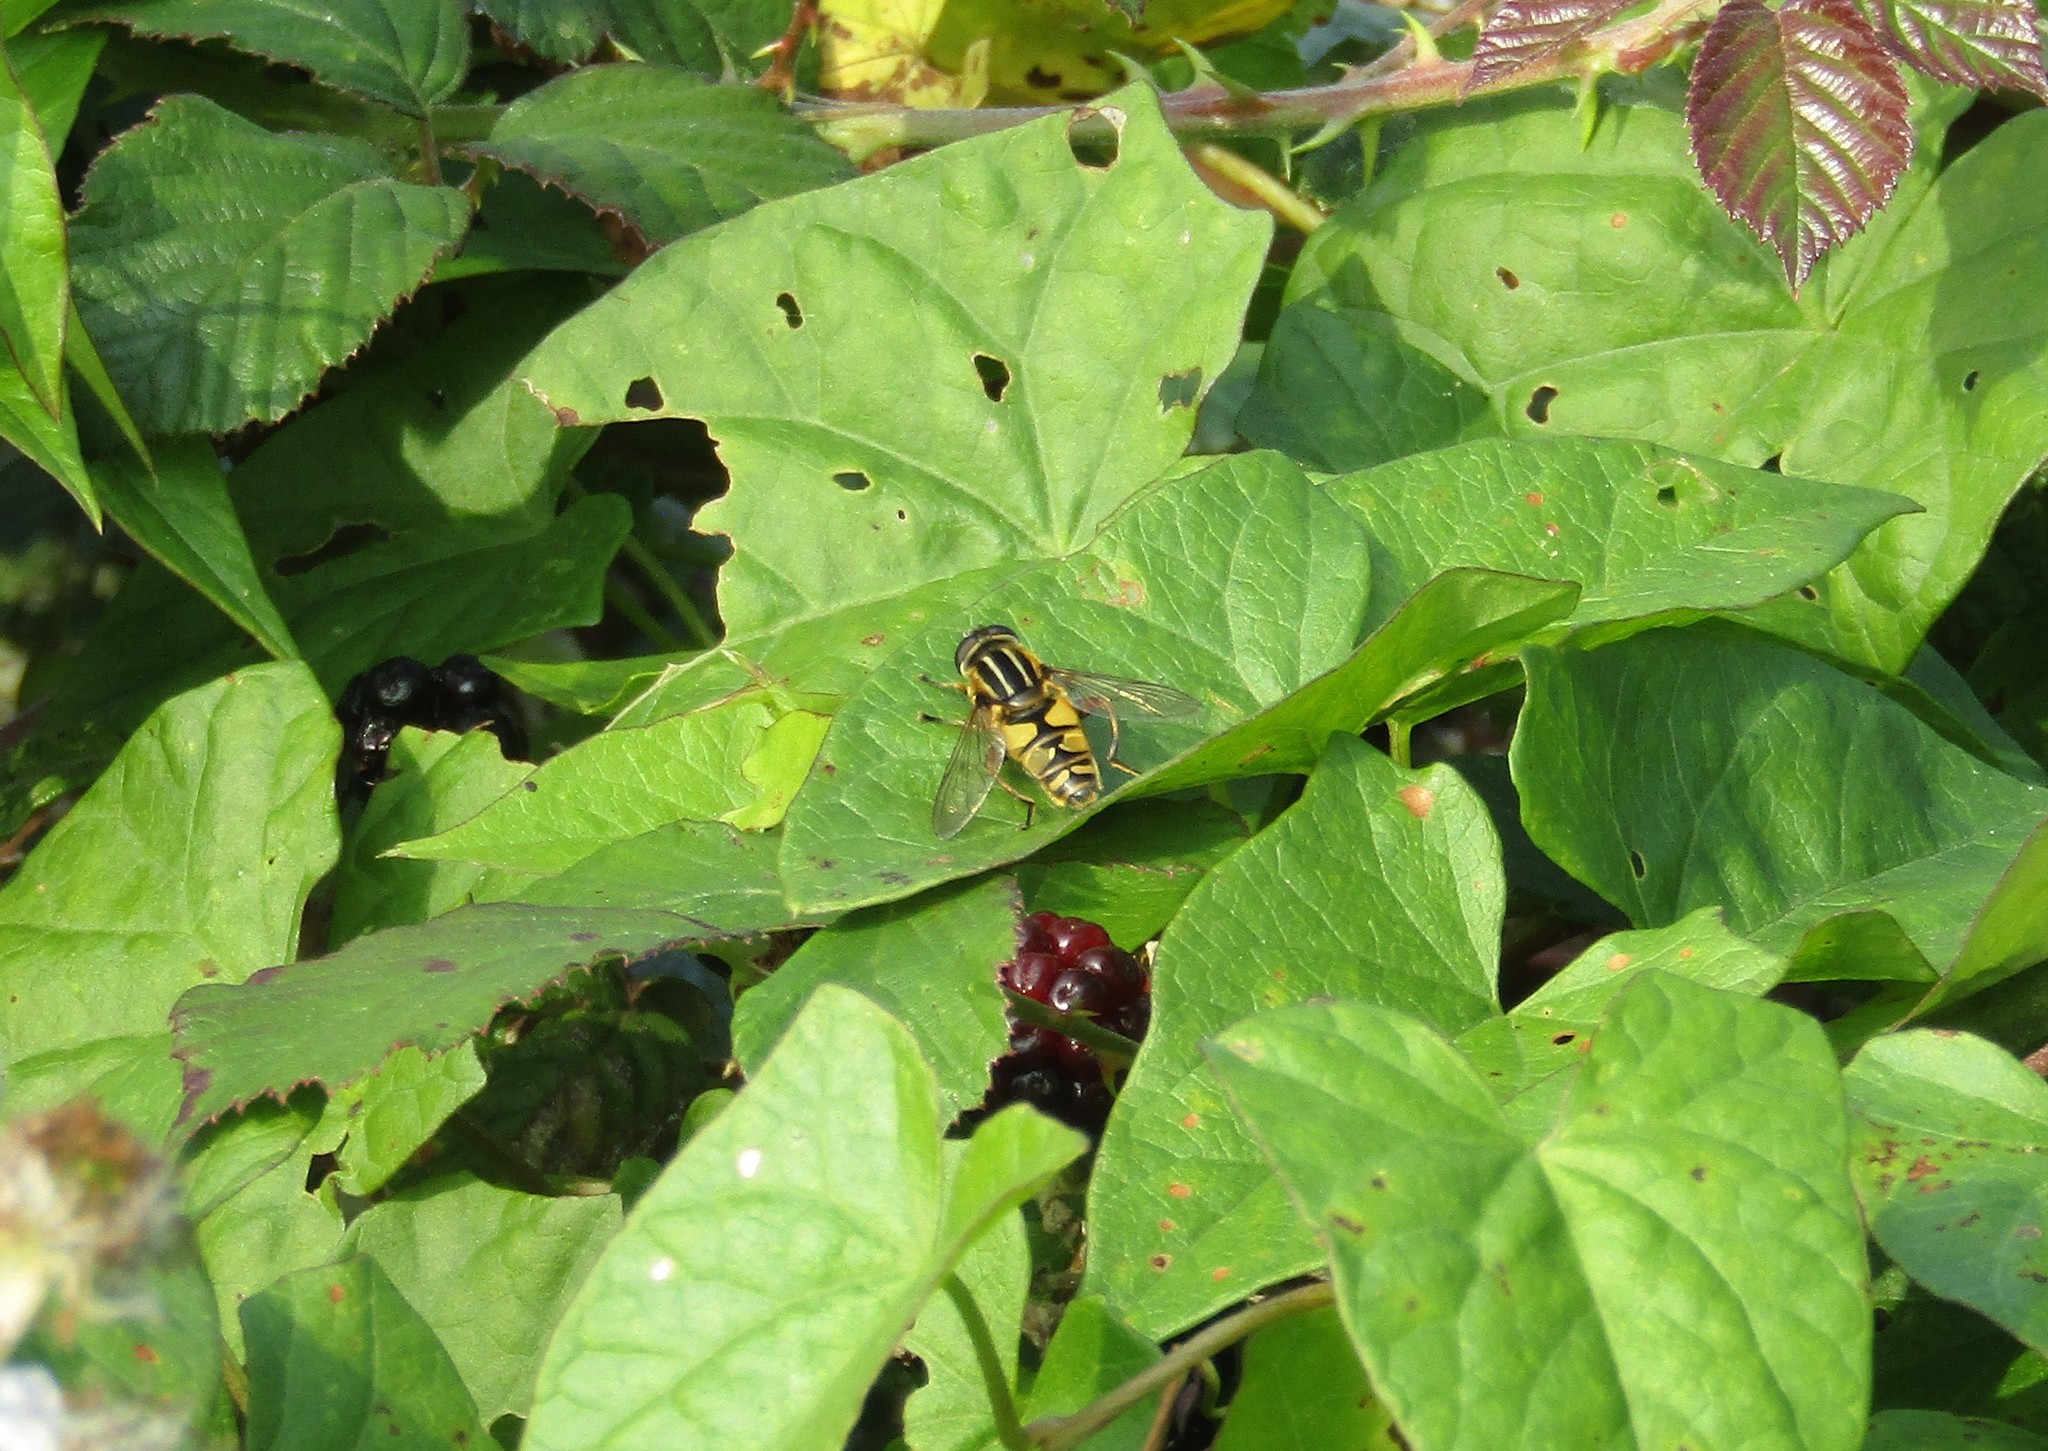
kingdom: Animalia
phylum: Arthropoda
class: Insecta
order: Diptera
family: Syrphidae
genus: Helophilus
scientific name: Helophilus pendulus
